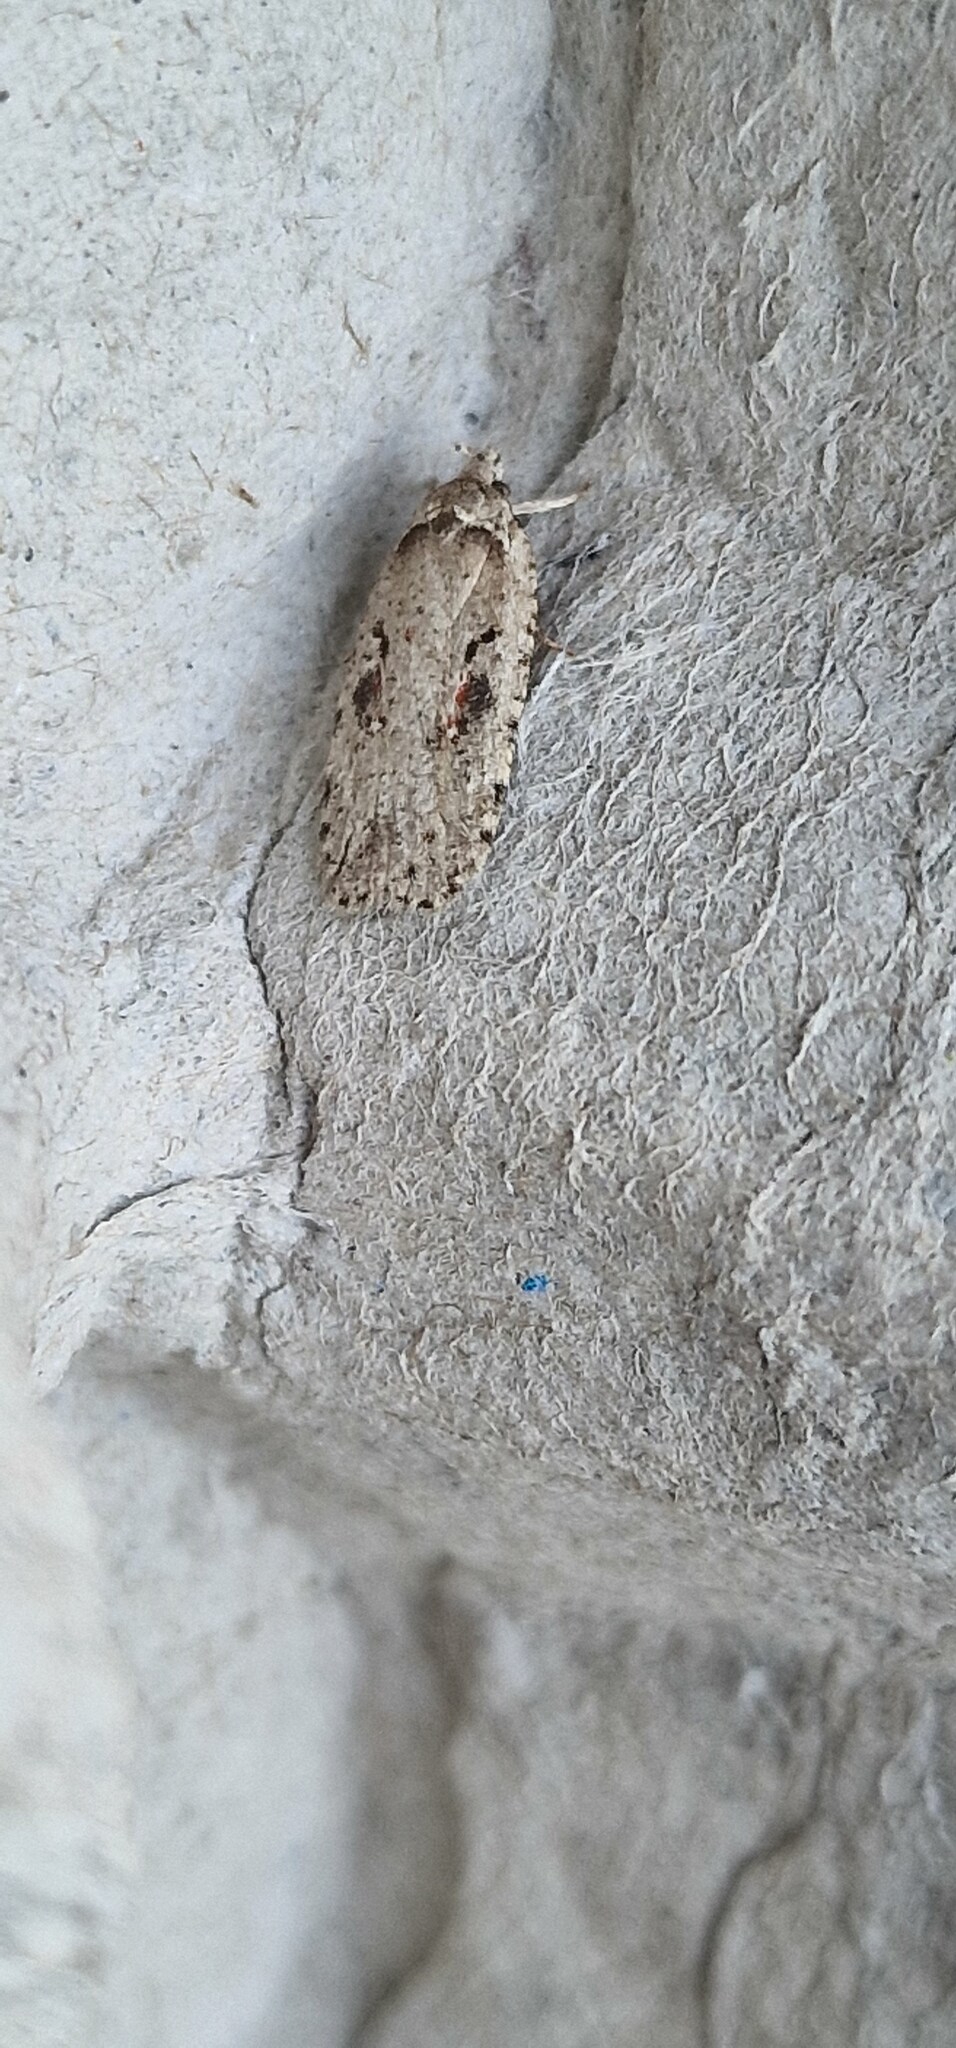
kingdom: Animalia
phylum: Arthropoda
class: Insecta
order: Lepidoptera
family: Depressariidae
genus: Agonopterix
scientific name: Agonopterix ocellana
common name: Red-letter flat-body
